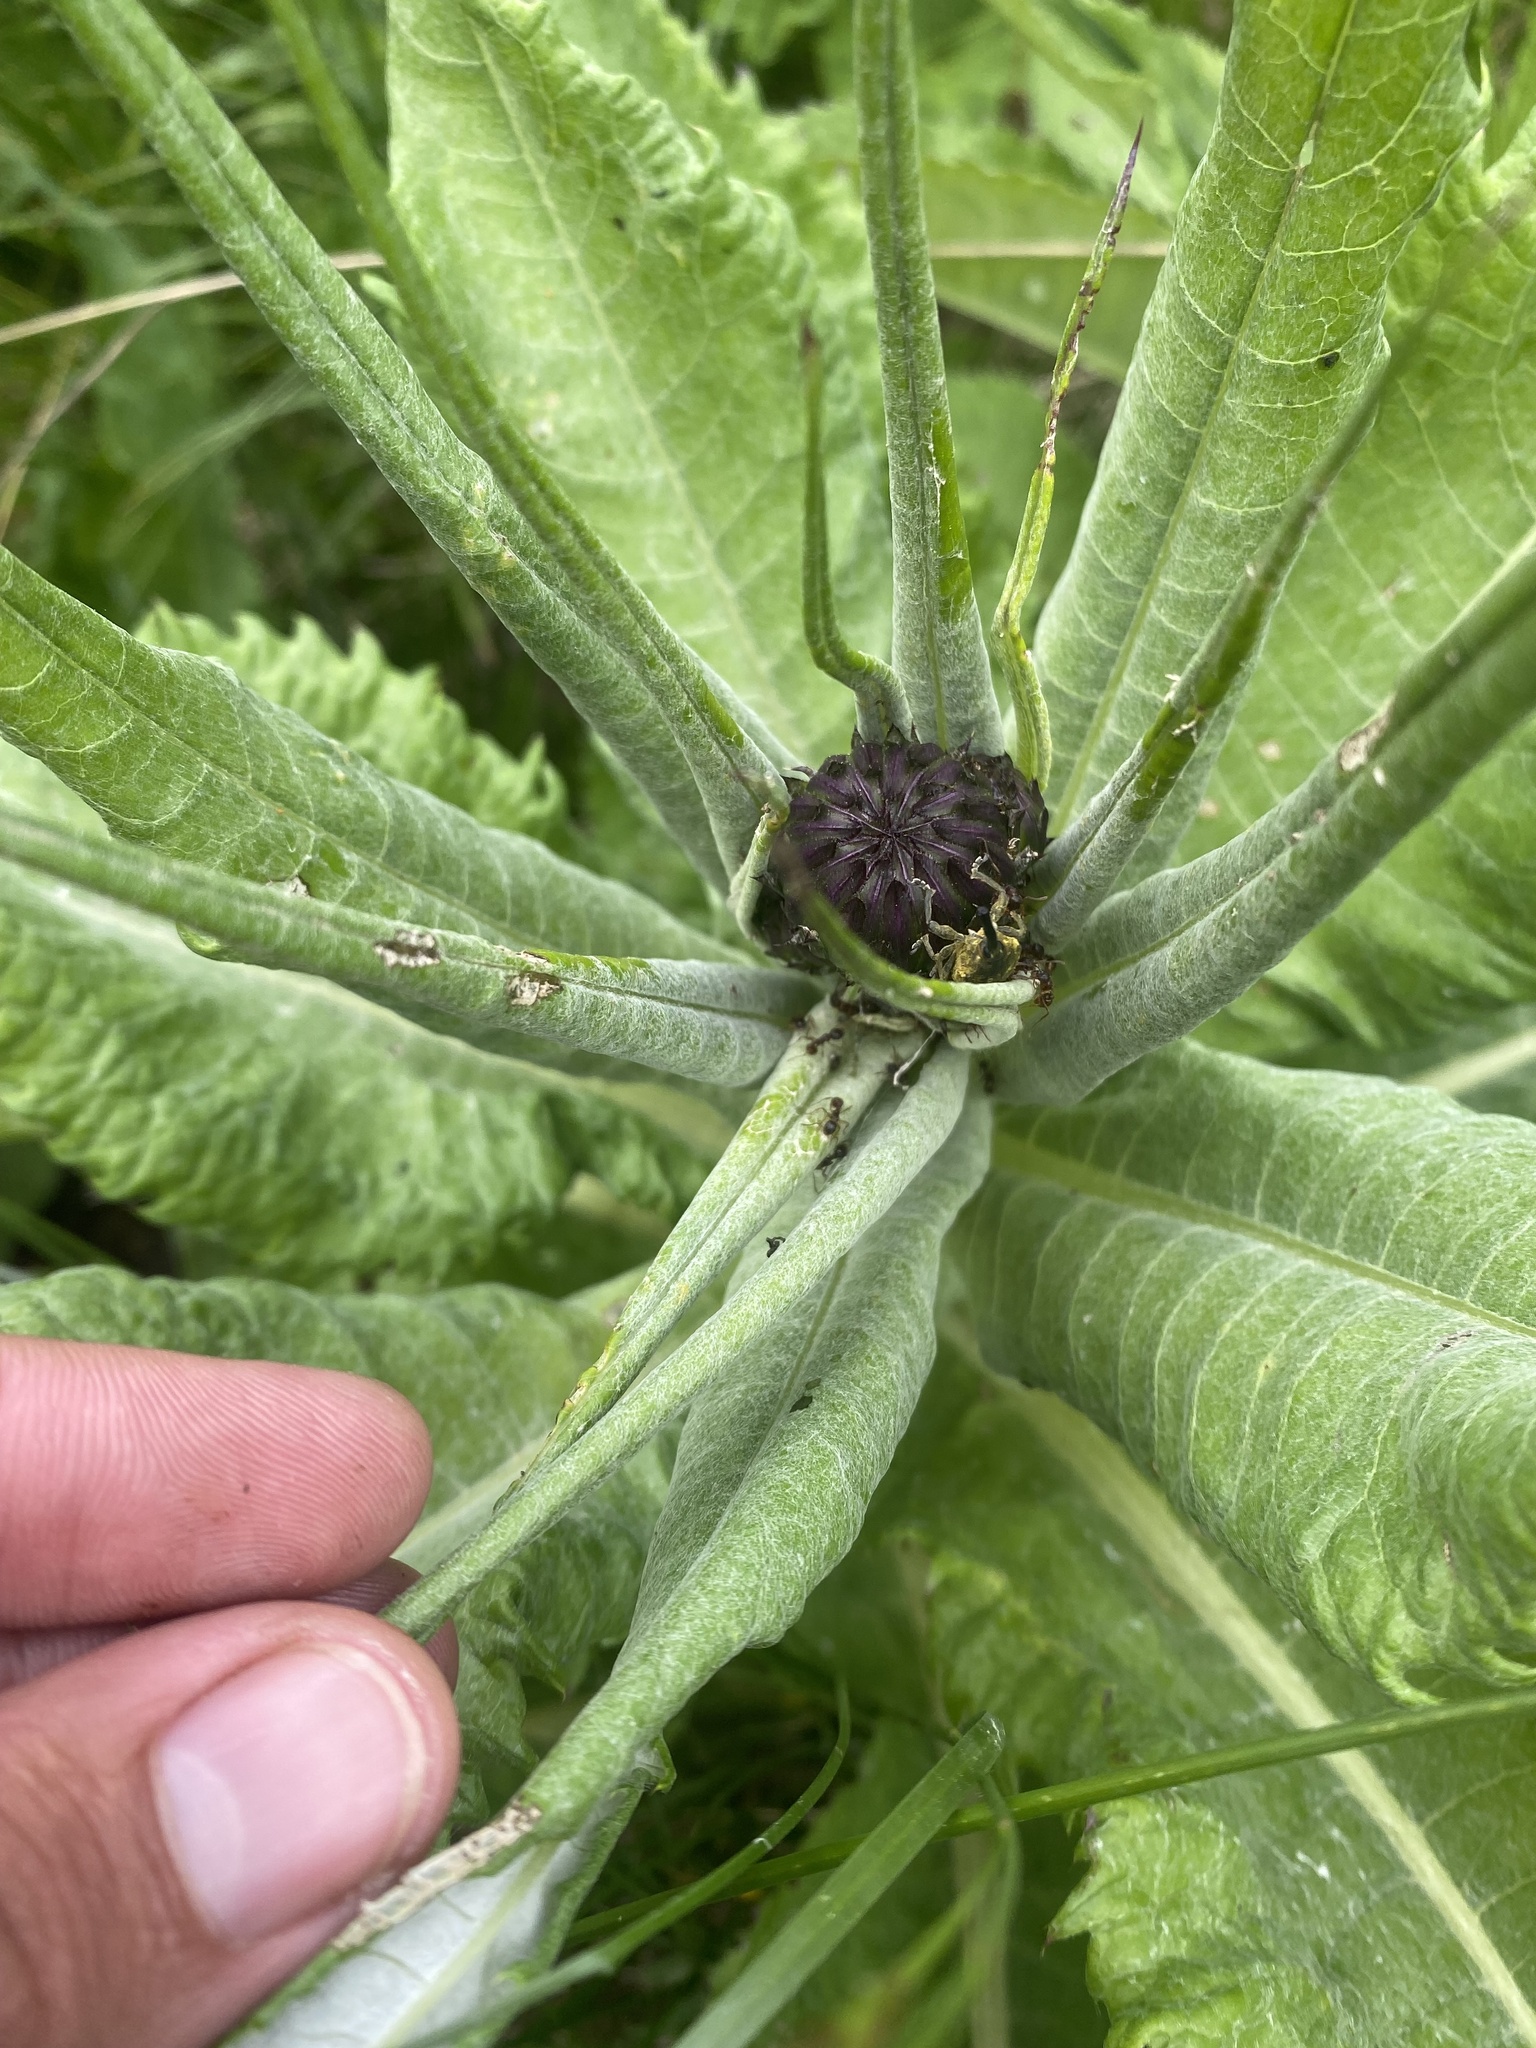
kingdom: Plantae
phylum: Tracheophyta
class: Magnoliopsida
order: Asterales
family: Asteraceae
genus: Cirsium
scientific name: Cirsium dealbatum
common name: Whitish thistle
